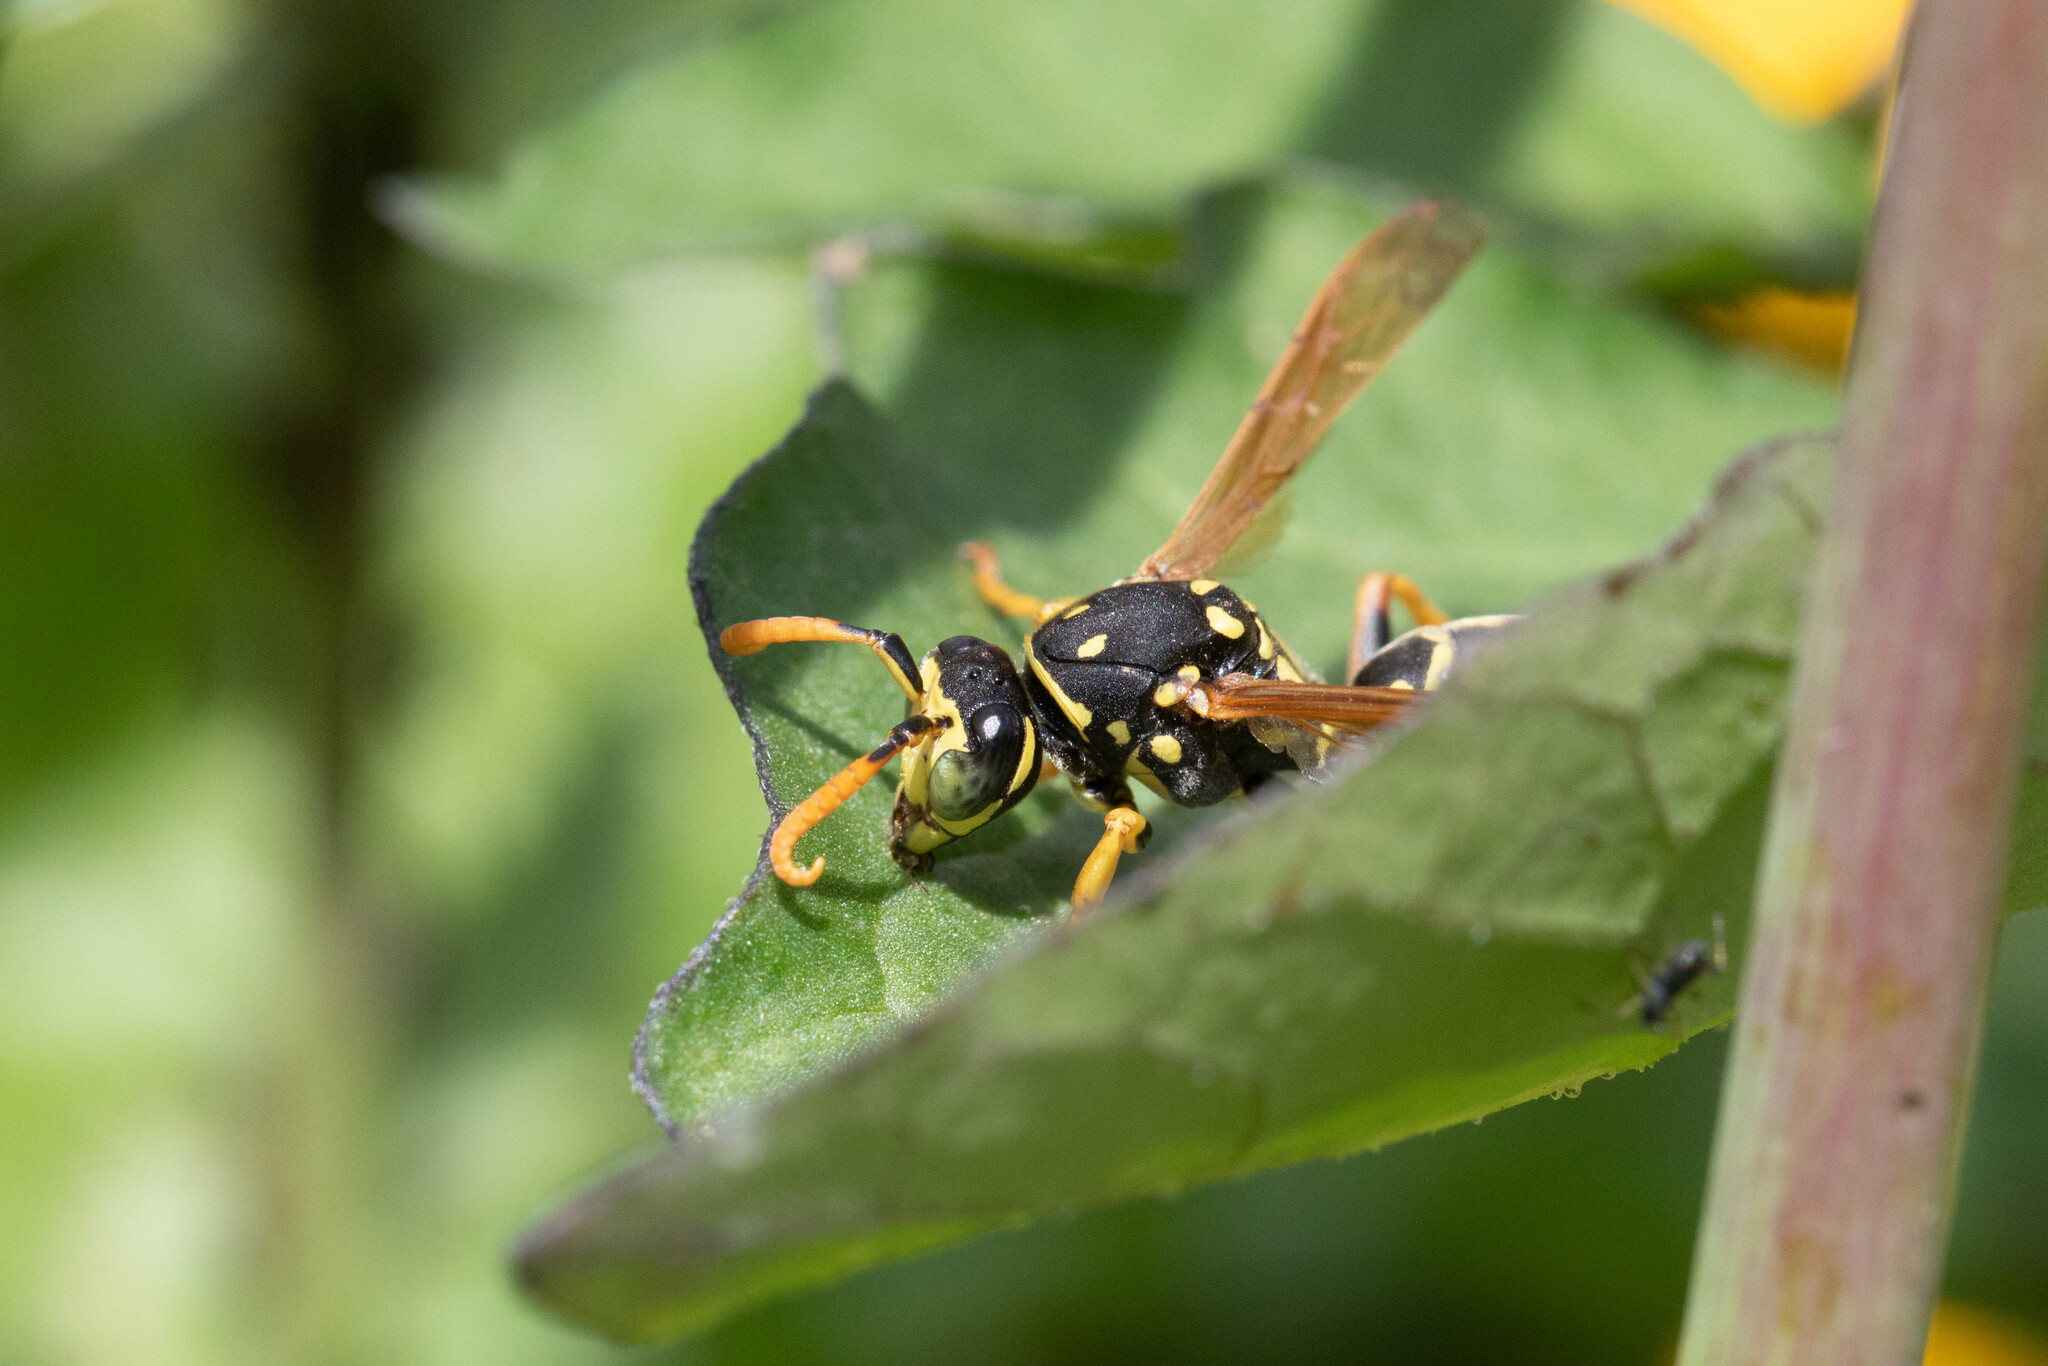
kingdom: Animalia
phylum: Arthropoda
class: Insecta
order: Hymenoptera
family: Eumenidae
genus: Polistes
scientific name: Polistes dominula
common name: Paper wasp
